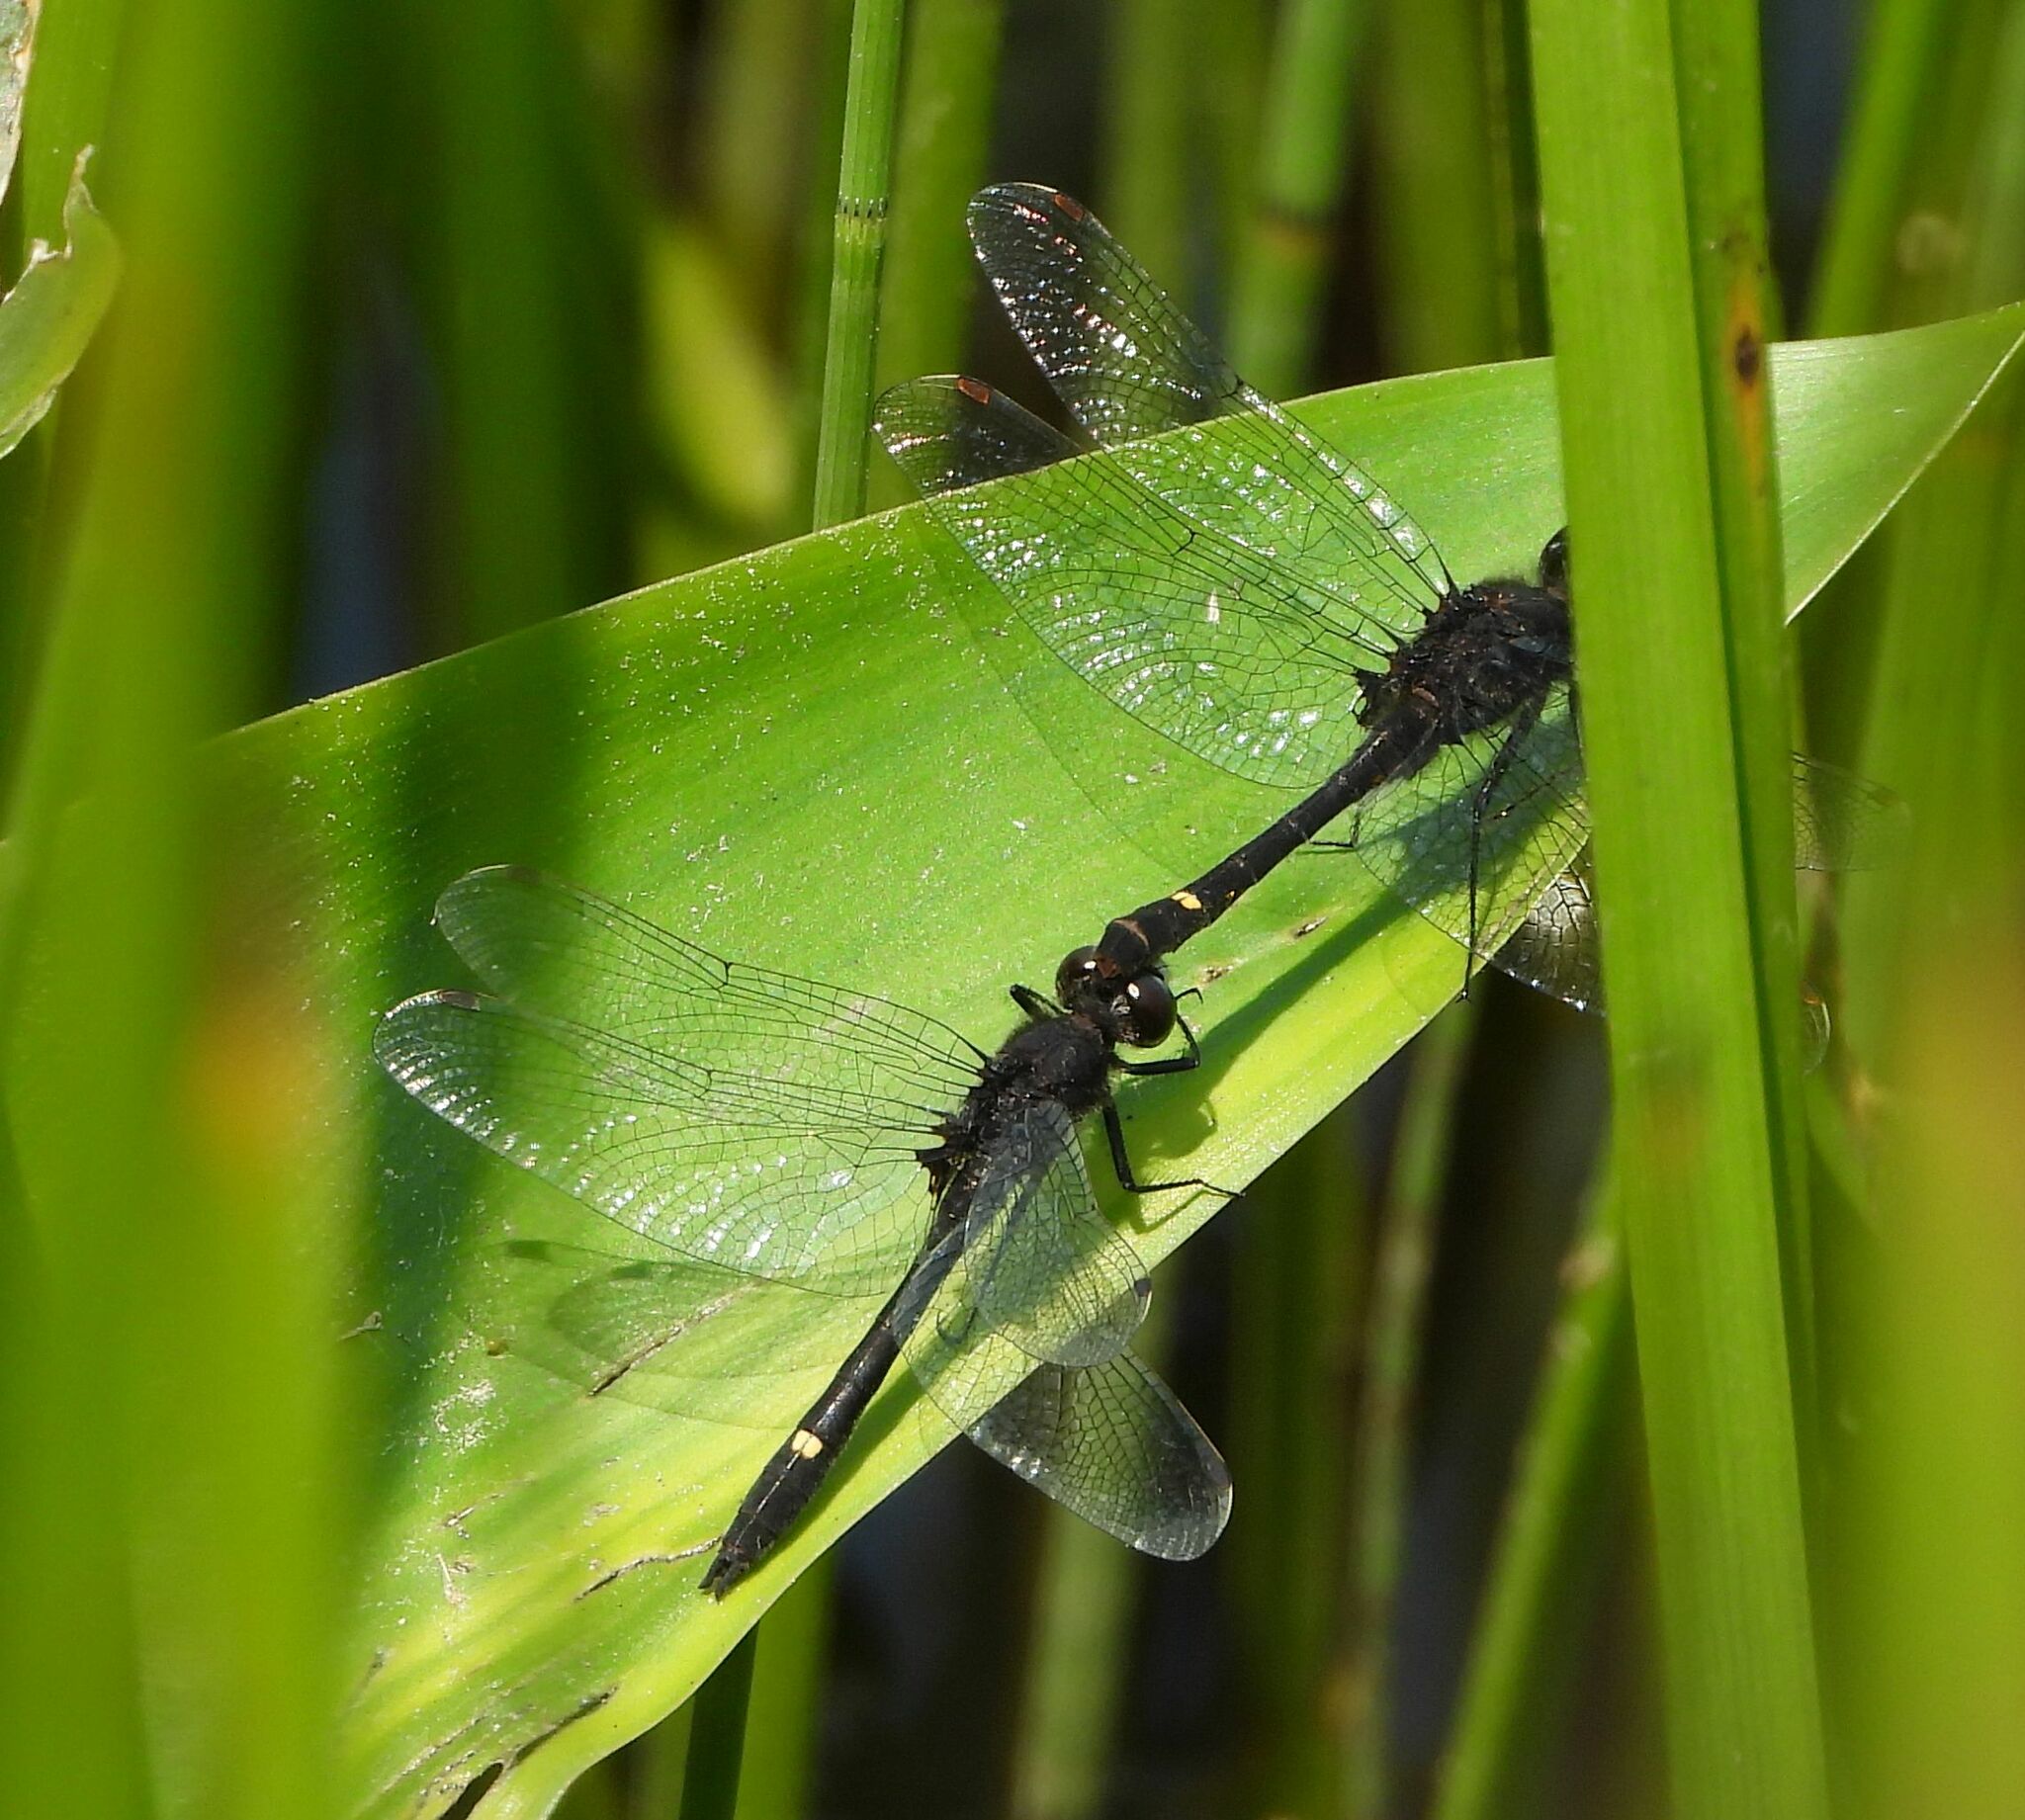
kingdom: Animalia
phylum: Arthropoda
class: Insecta
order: Odonata
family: Libellulidae
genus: Leucorrhinia
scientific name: Leucorrhinia intacta
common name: Dot-tailed whiteface
